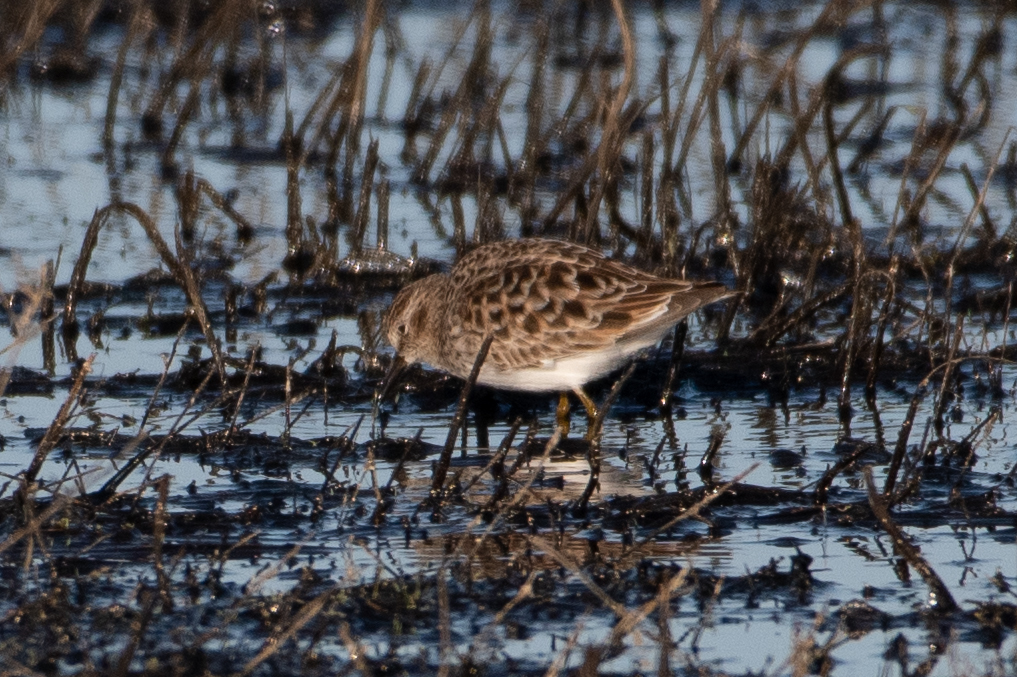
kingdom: Animalia
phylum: Chordata
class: Aves
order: Charadriiformes
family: Scolopacidae
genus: Calidris
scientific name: Calidris minutilla
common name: Least sandpiper
